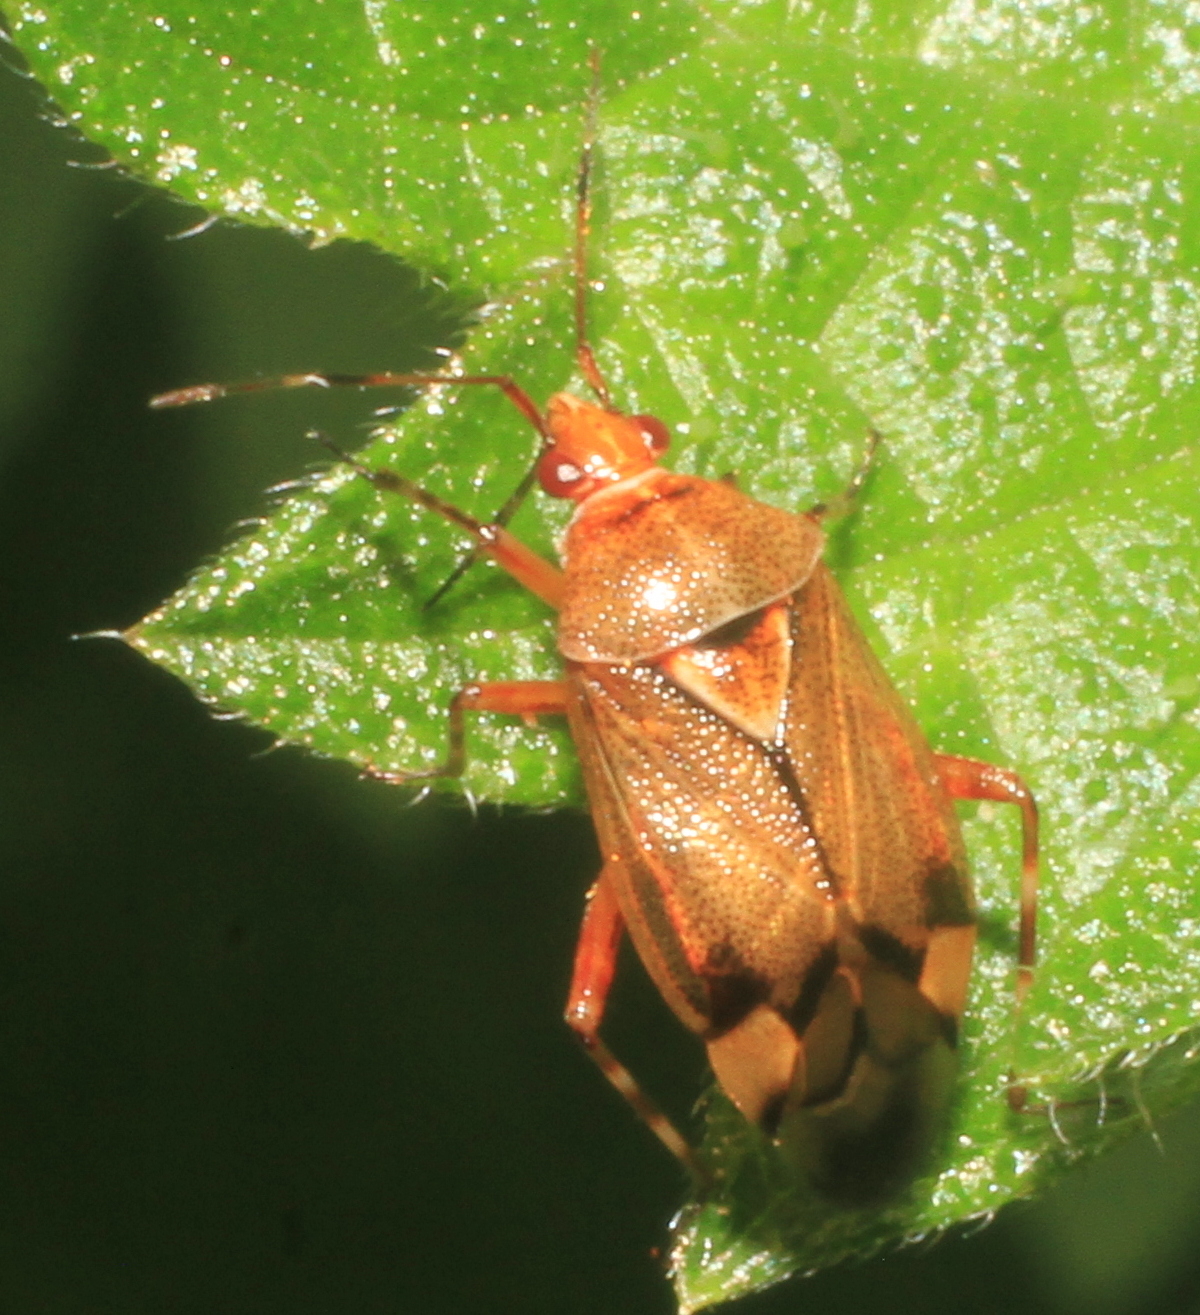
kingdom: Animalia
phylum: Arthropoda
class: Insecta
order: Hemiptera
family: Miridae
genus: Deraeocoris
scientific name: Deraeocoris flavilinea
